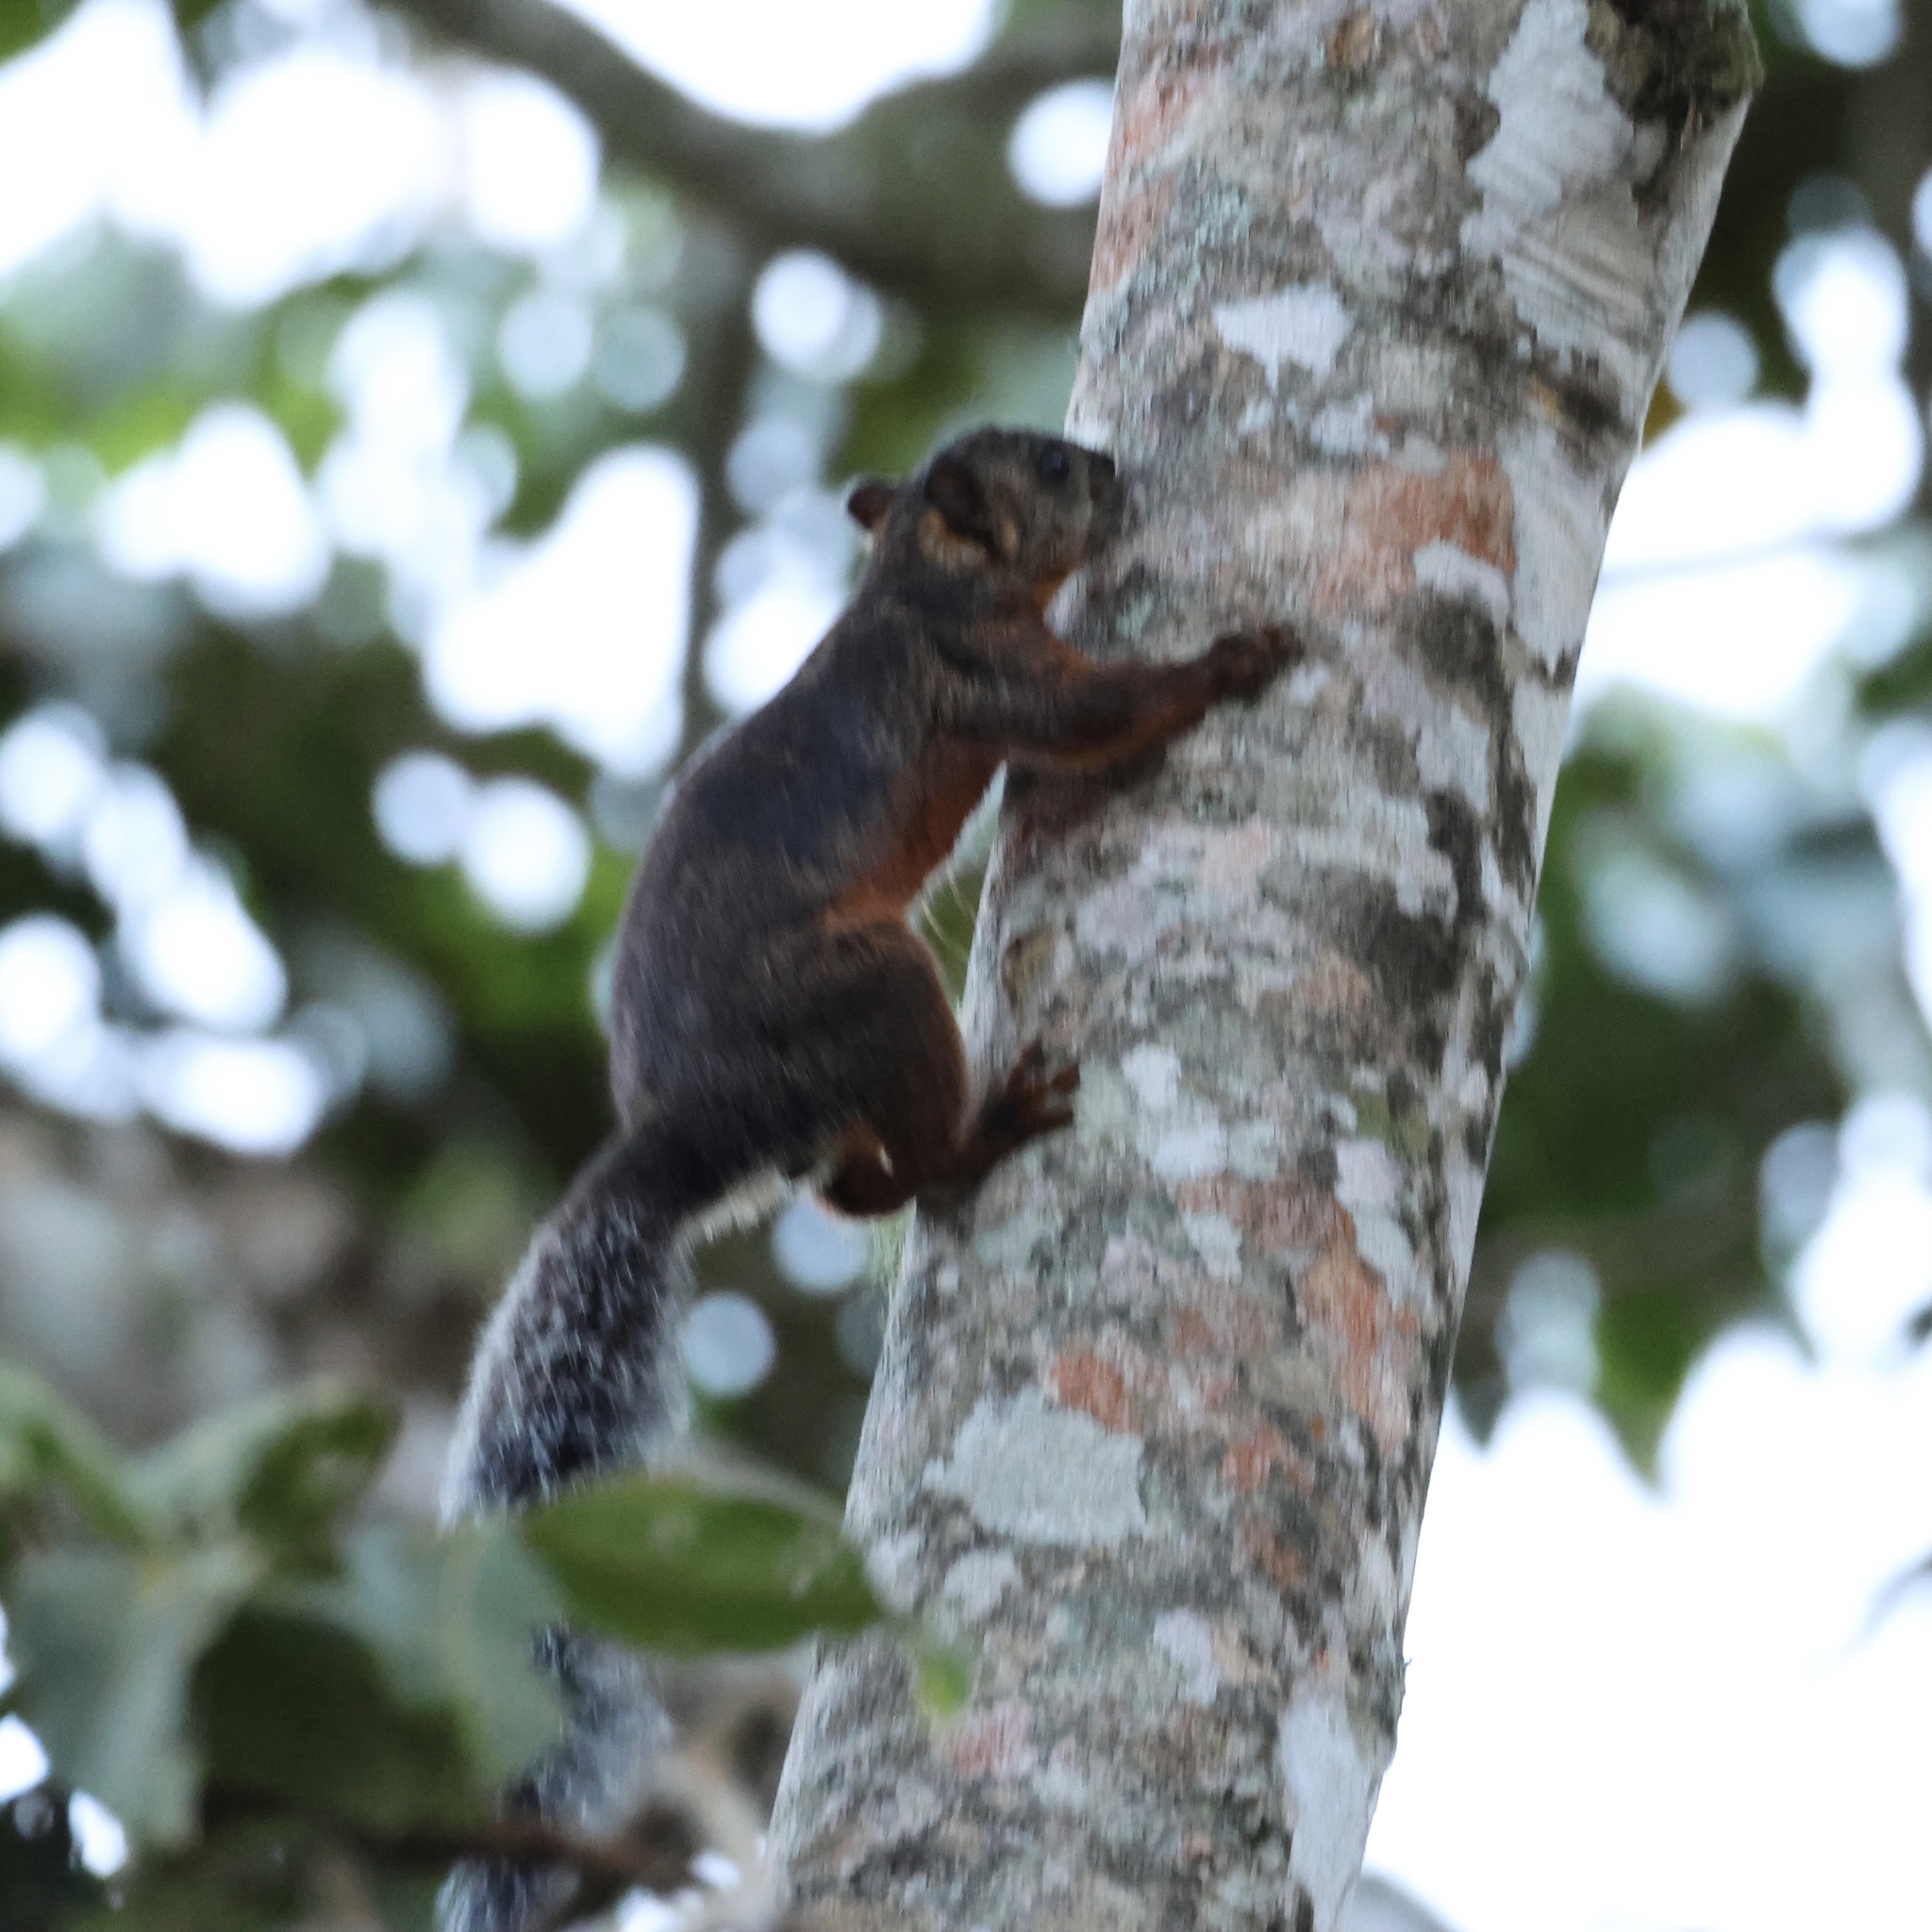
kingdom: Animalia
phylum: Chordata
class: Mammalia
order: Rodentia
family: Sciuridae
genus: Sciurus
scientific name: Sciurus variegatoides
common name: Variegated squirrel
